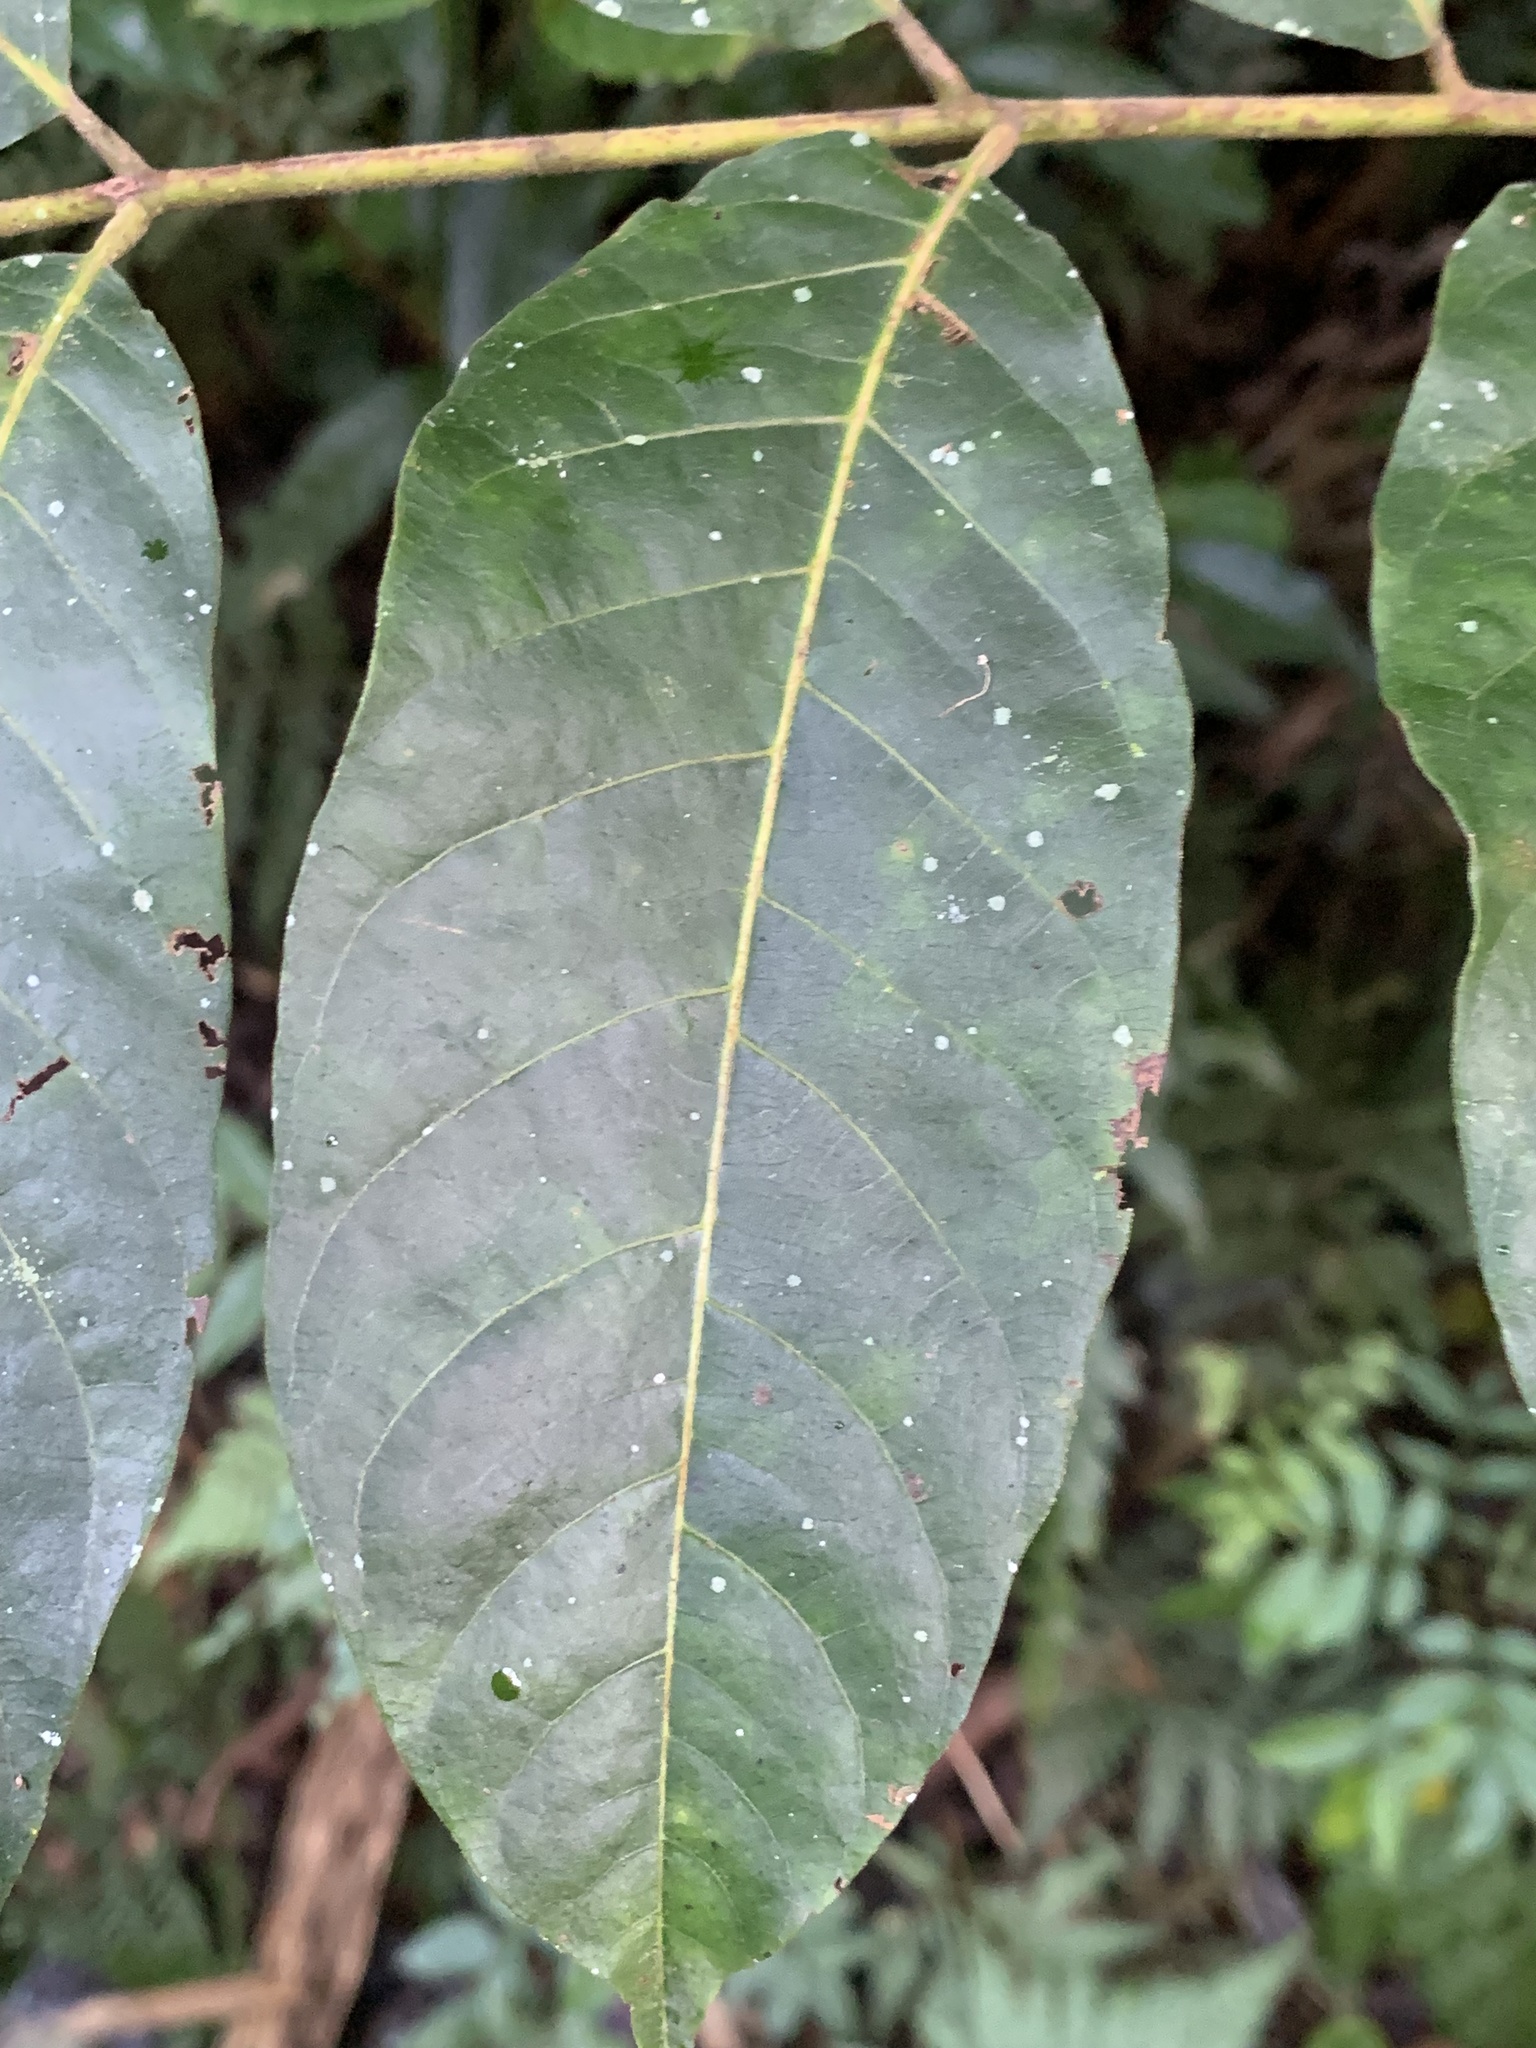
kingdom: Plantae
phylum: Tracheophyta
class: Magnoliopsida
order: Sapindales
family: Meliaceae
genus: Toona
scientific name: Toona ciliata
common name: Australian redcedar
